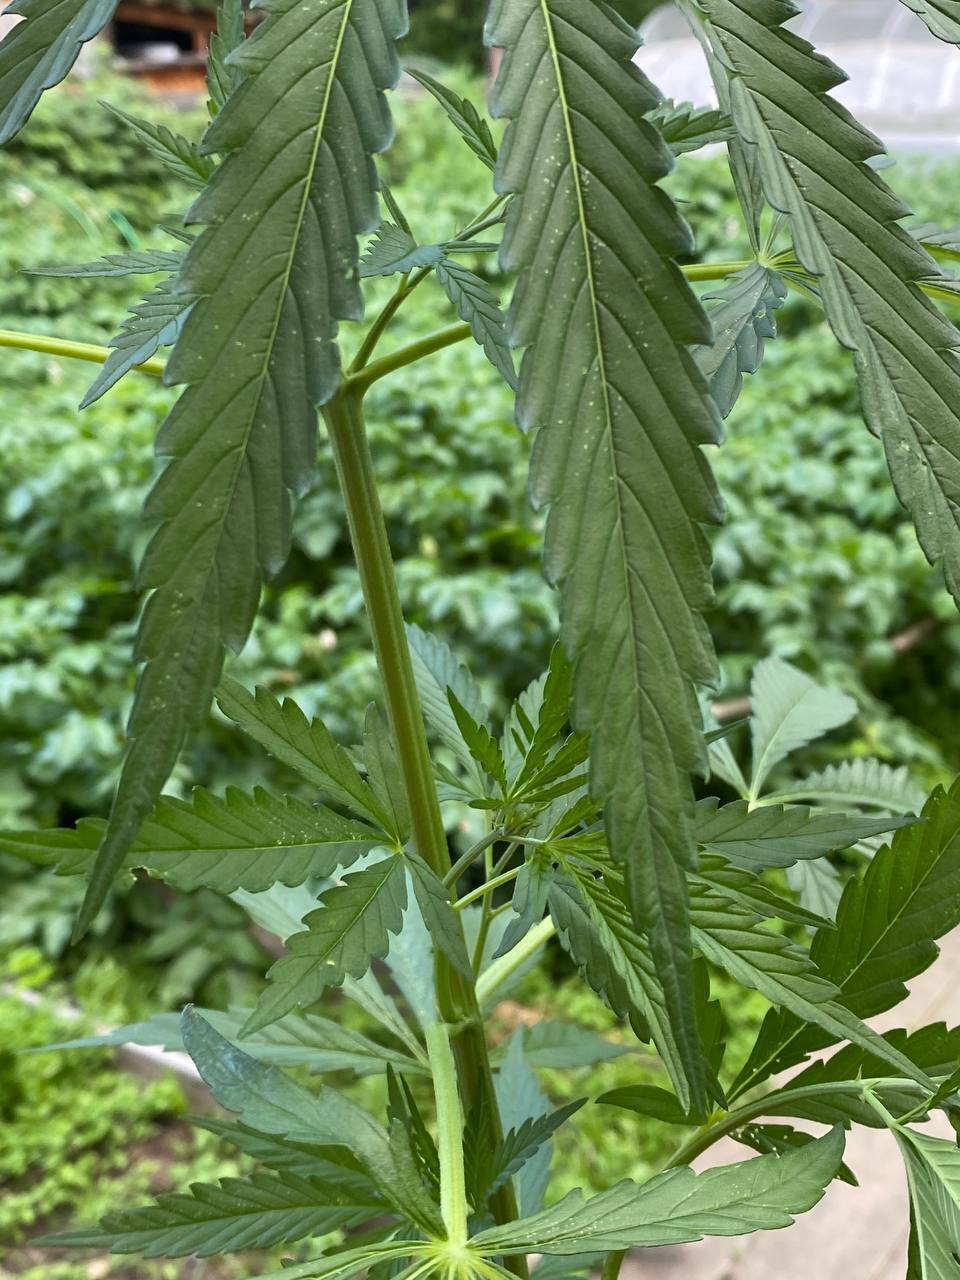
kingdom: Plantae
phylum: Tracheophyta
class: Magnoliopsida
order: Rosales
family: Cannabaceae
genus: Cannabis
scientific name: Cannabis sativa
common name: Hemp
